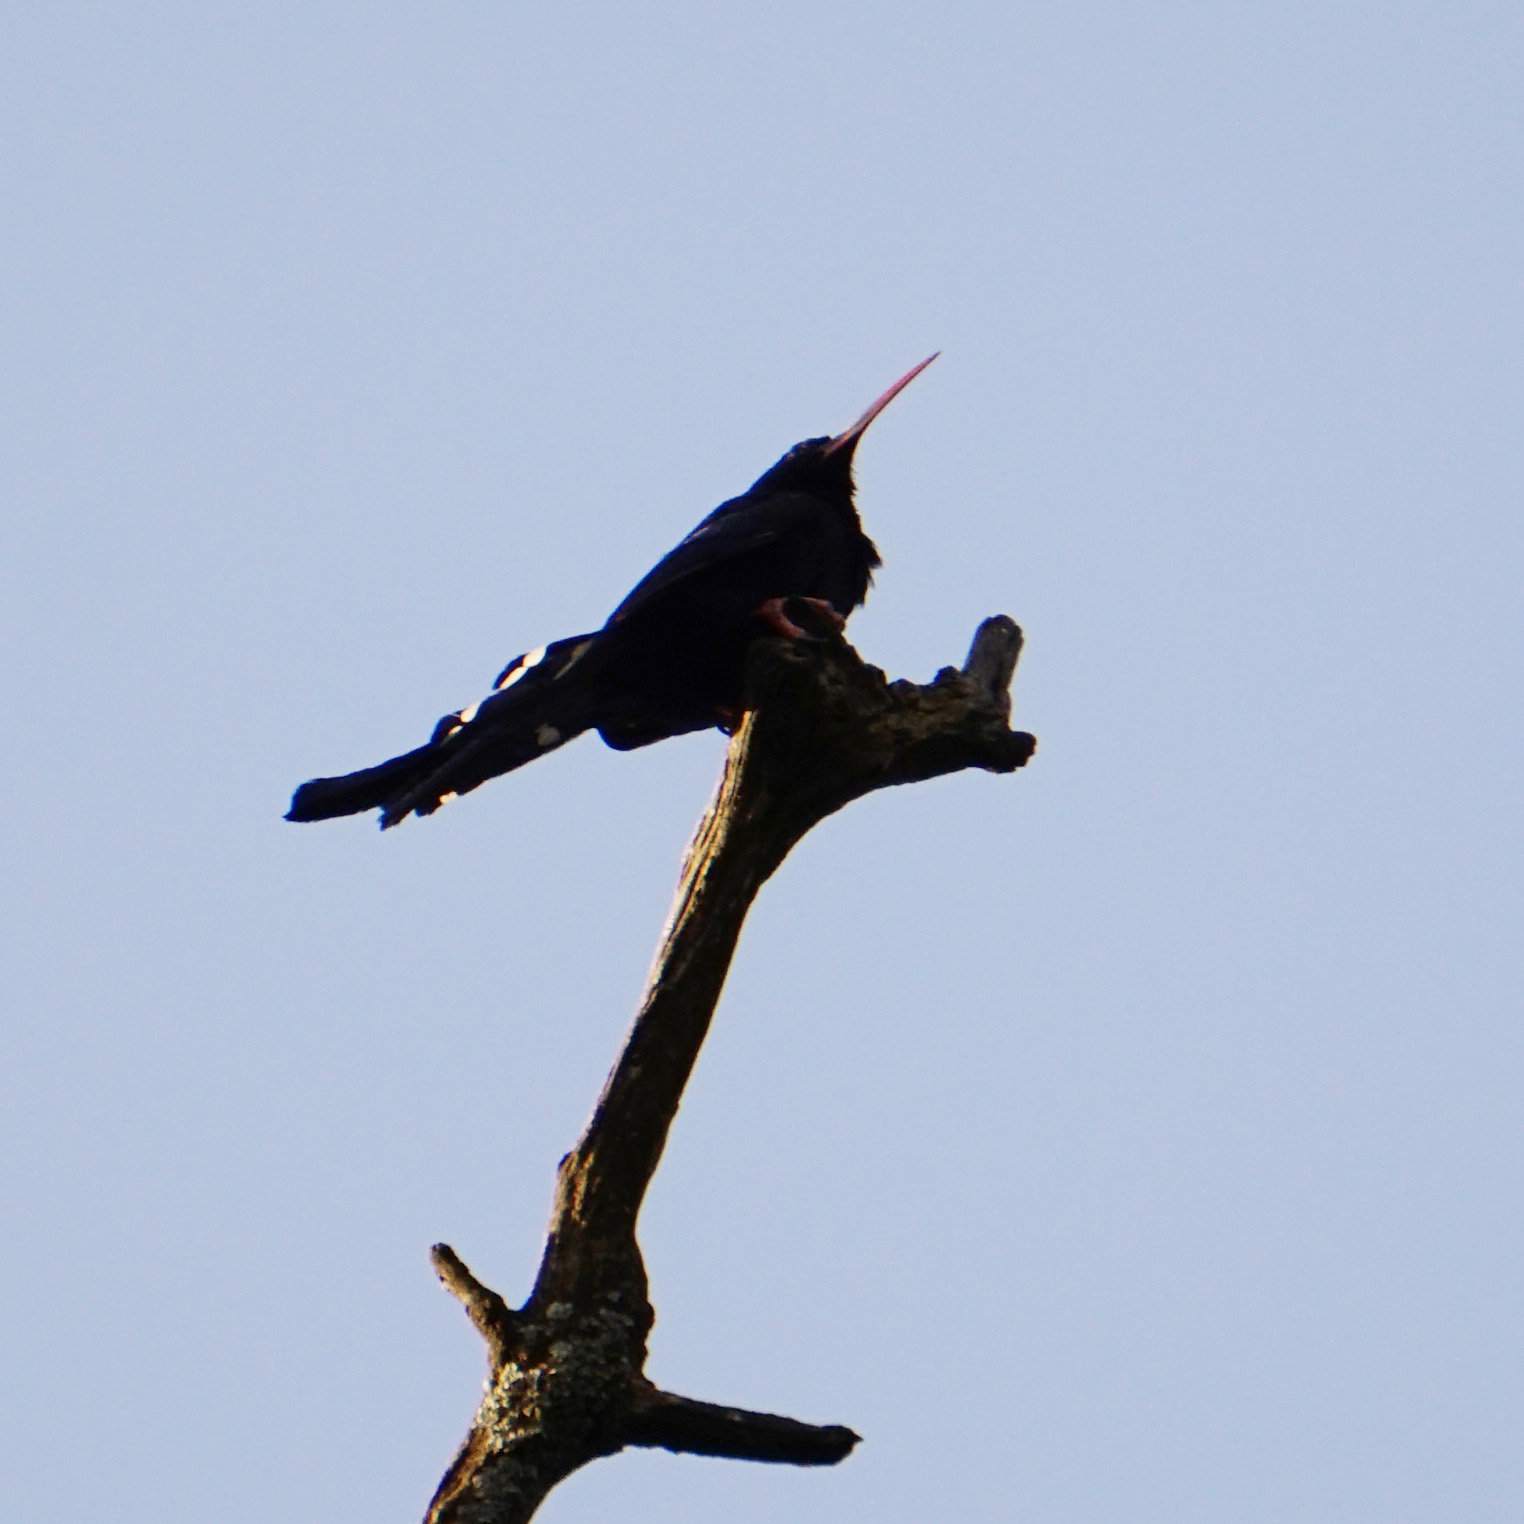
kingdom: Animalia
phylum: Chordata
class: Aves
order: Bucerotiformes
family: Phoeniculidae
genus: Phoeniculus
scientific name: Phoeniculus purpureus
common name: Green woodhoopoe
